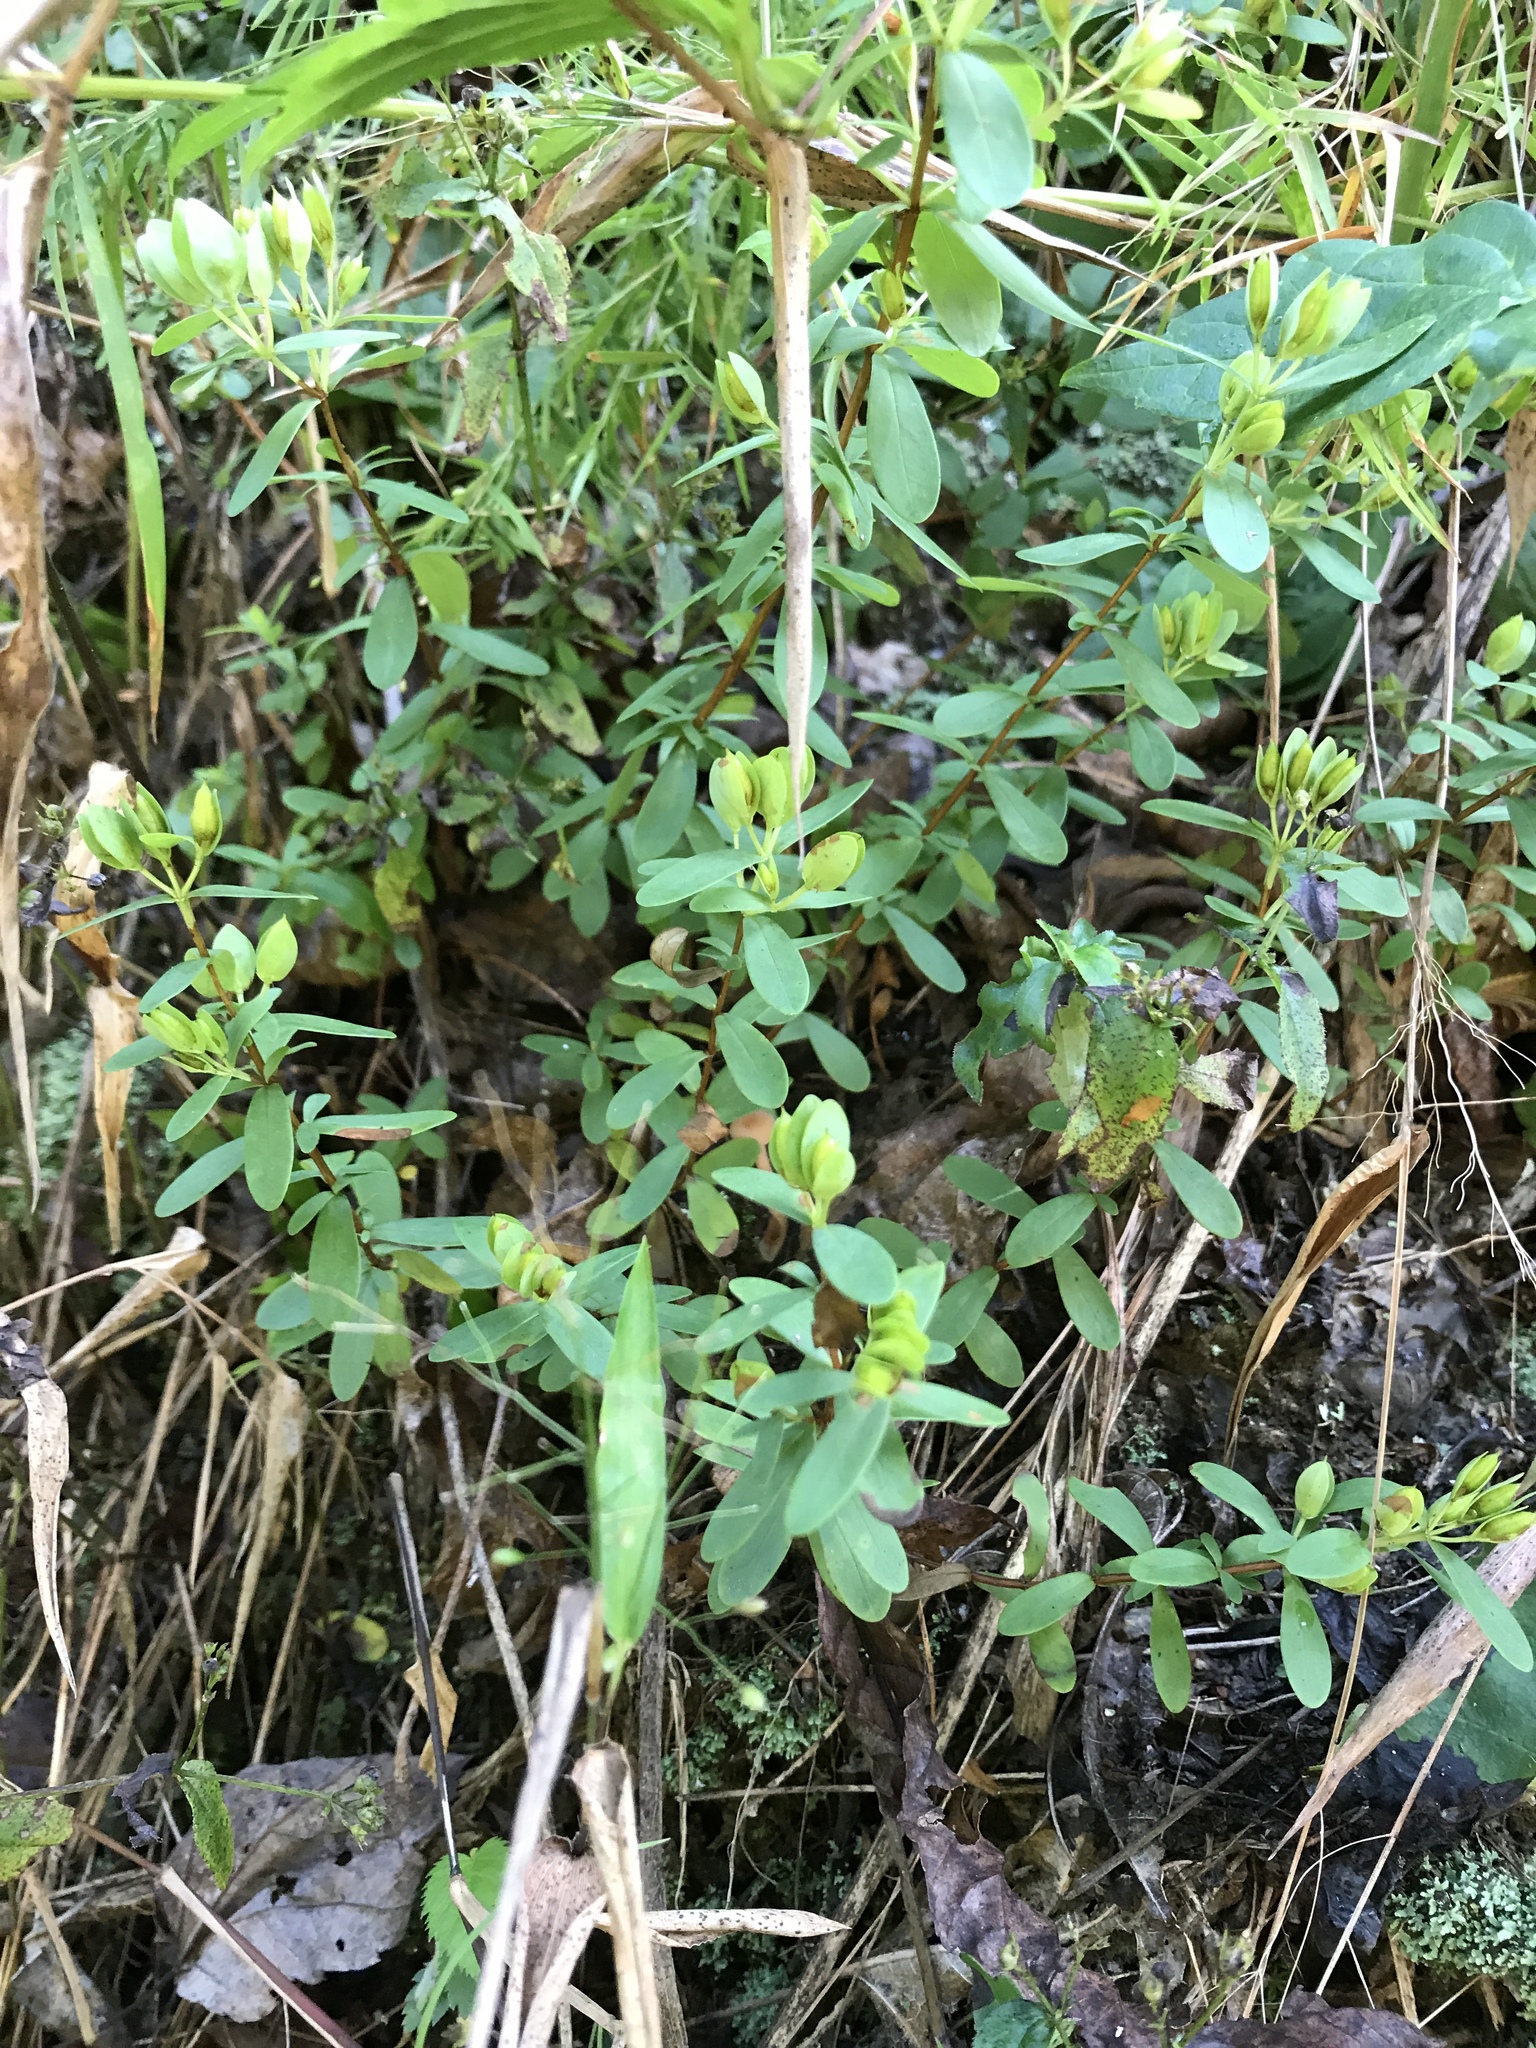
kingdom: Plantae
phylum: Tracheophyta
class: Magnoliopsida
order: Malpighiales
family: Hypericaceae
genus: Hypericum
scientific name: Hypericum hypericoides
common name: St. andrew's cross
